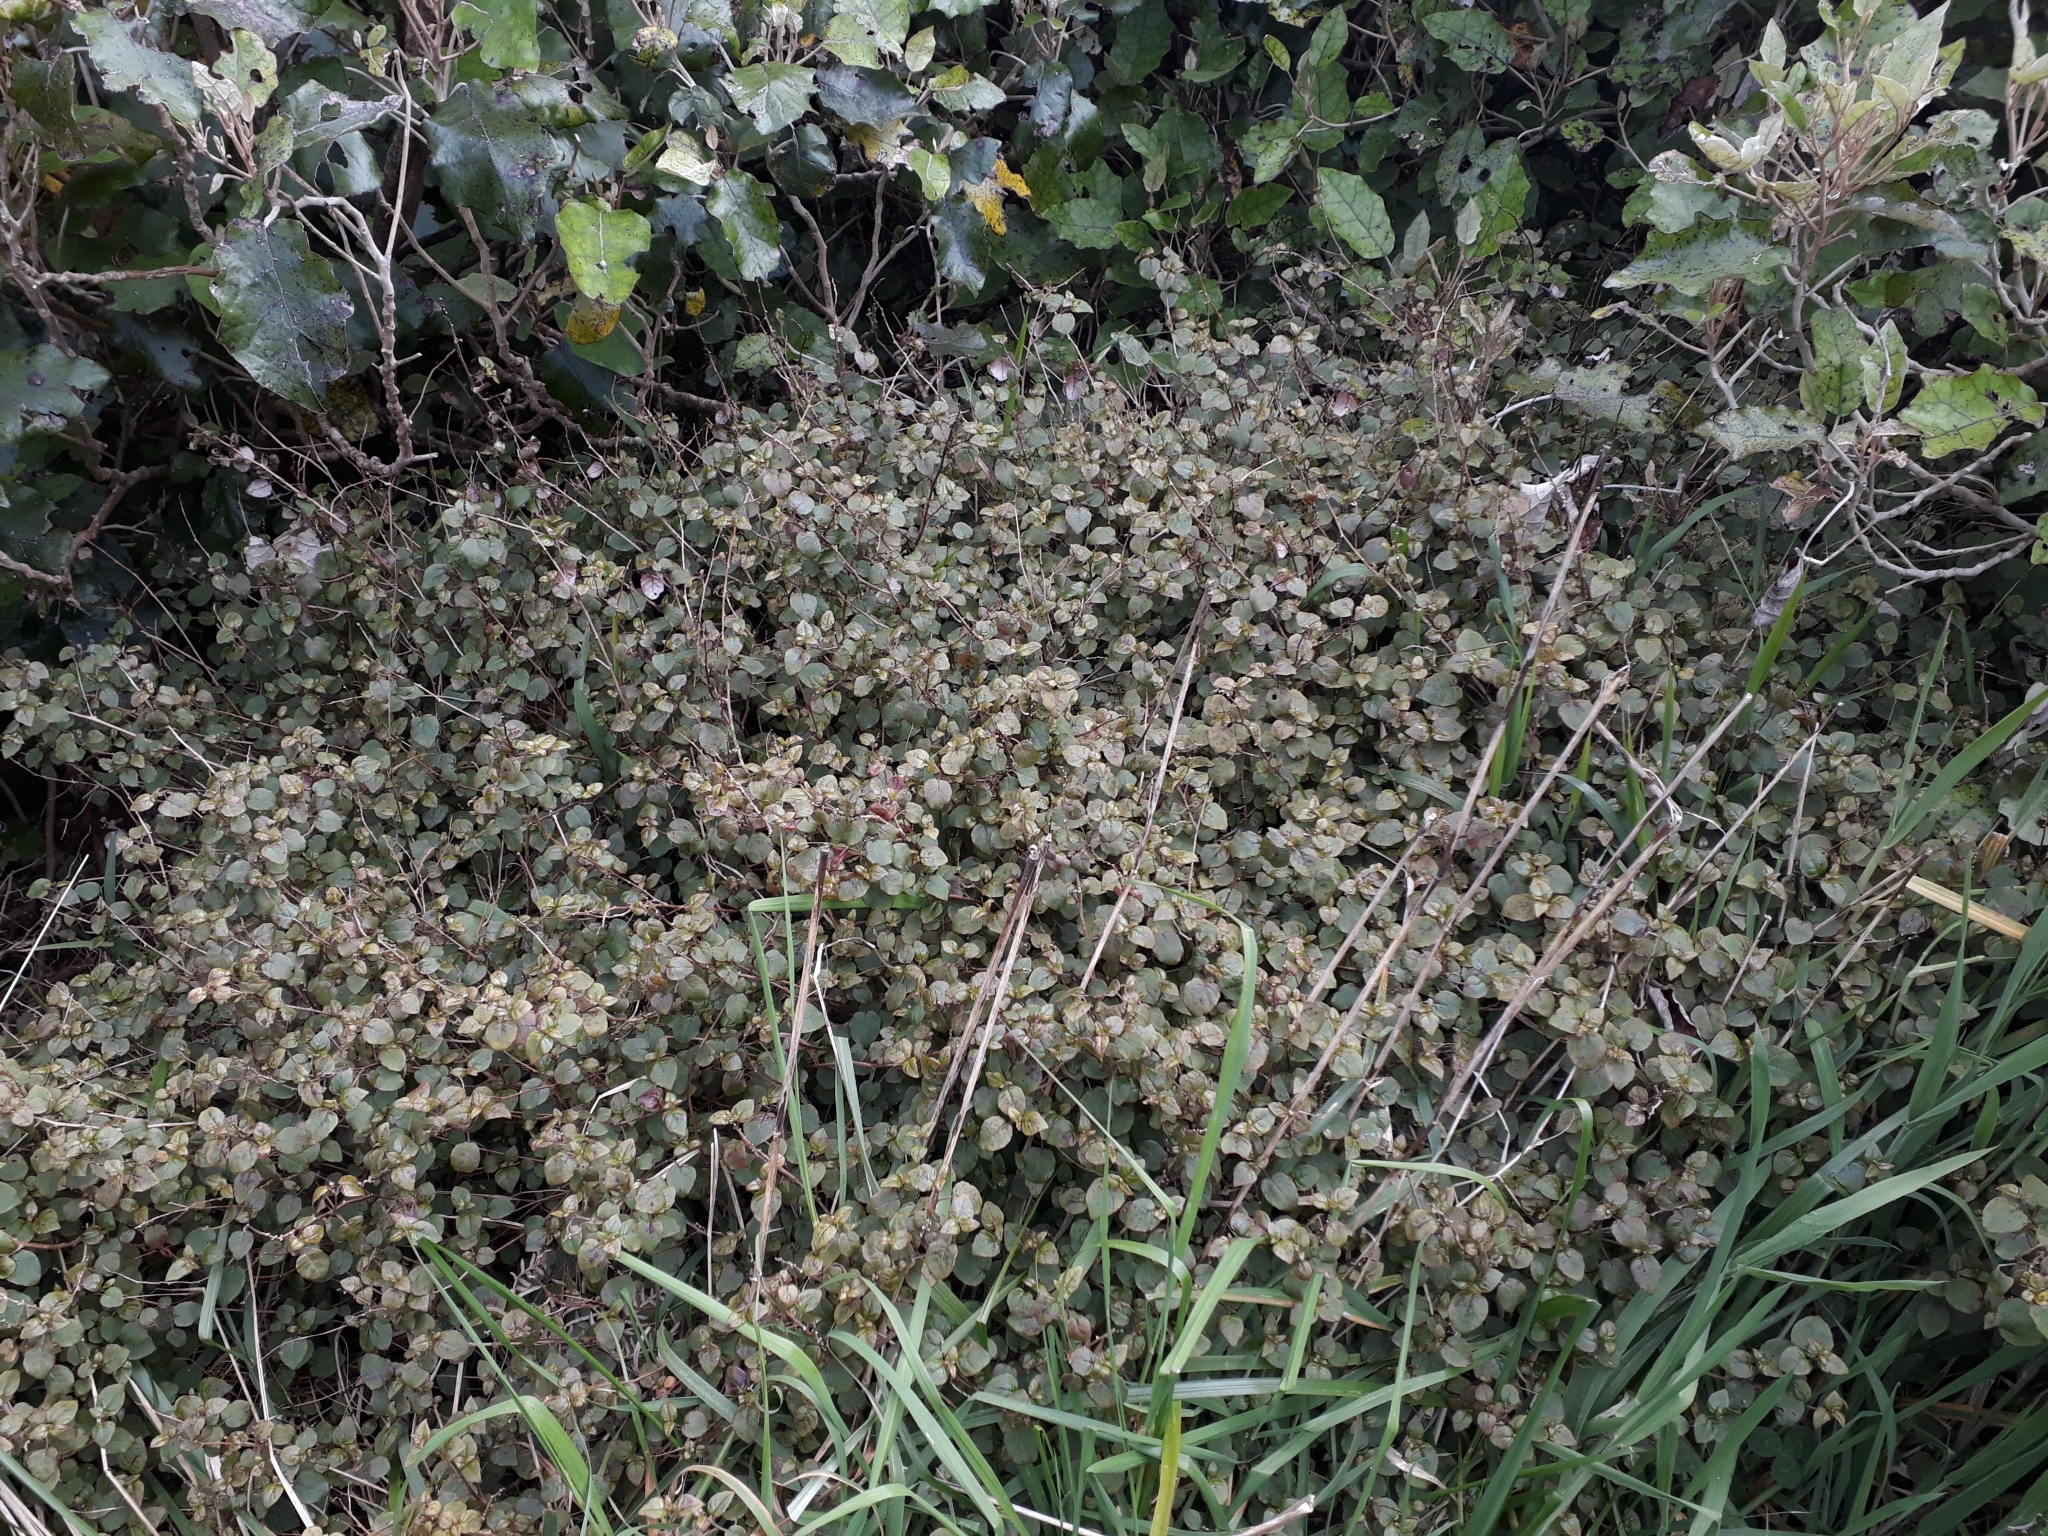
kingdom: Plantae
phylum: Tracheophyta
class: Magnoliopsida
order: Myrtales
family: Onagraceae
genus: Fuchsia
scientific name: Fuchsia perscandens
